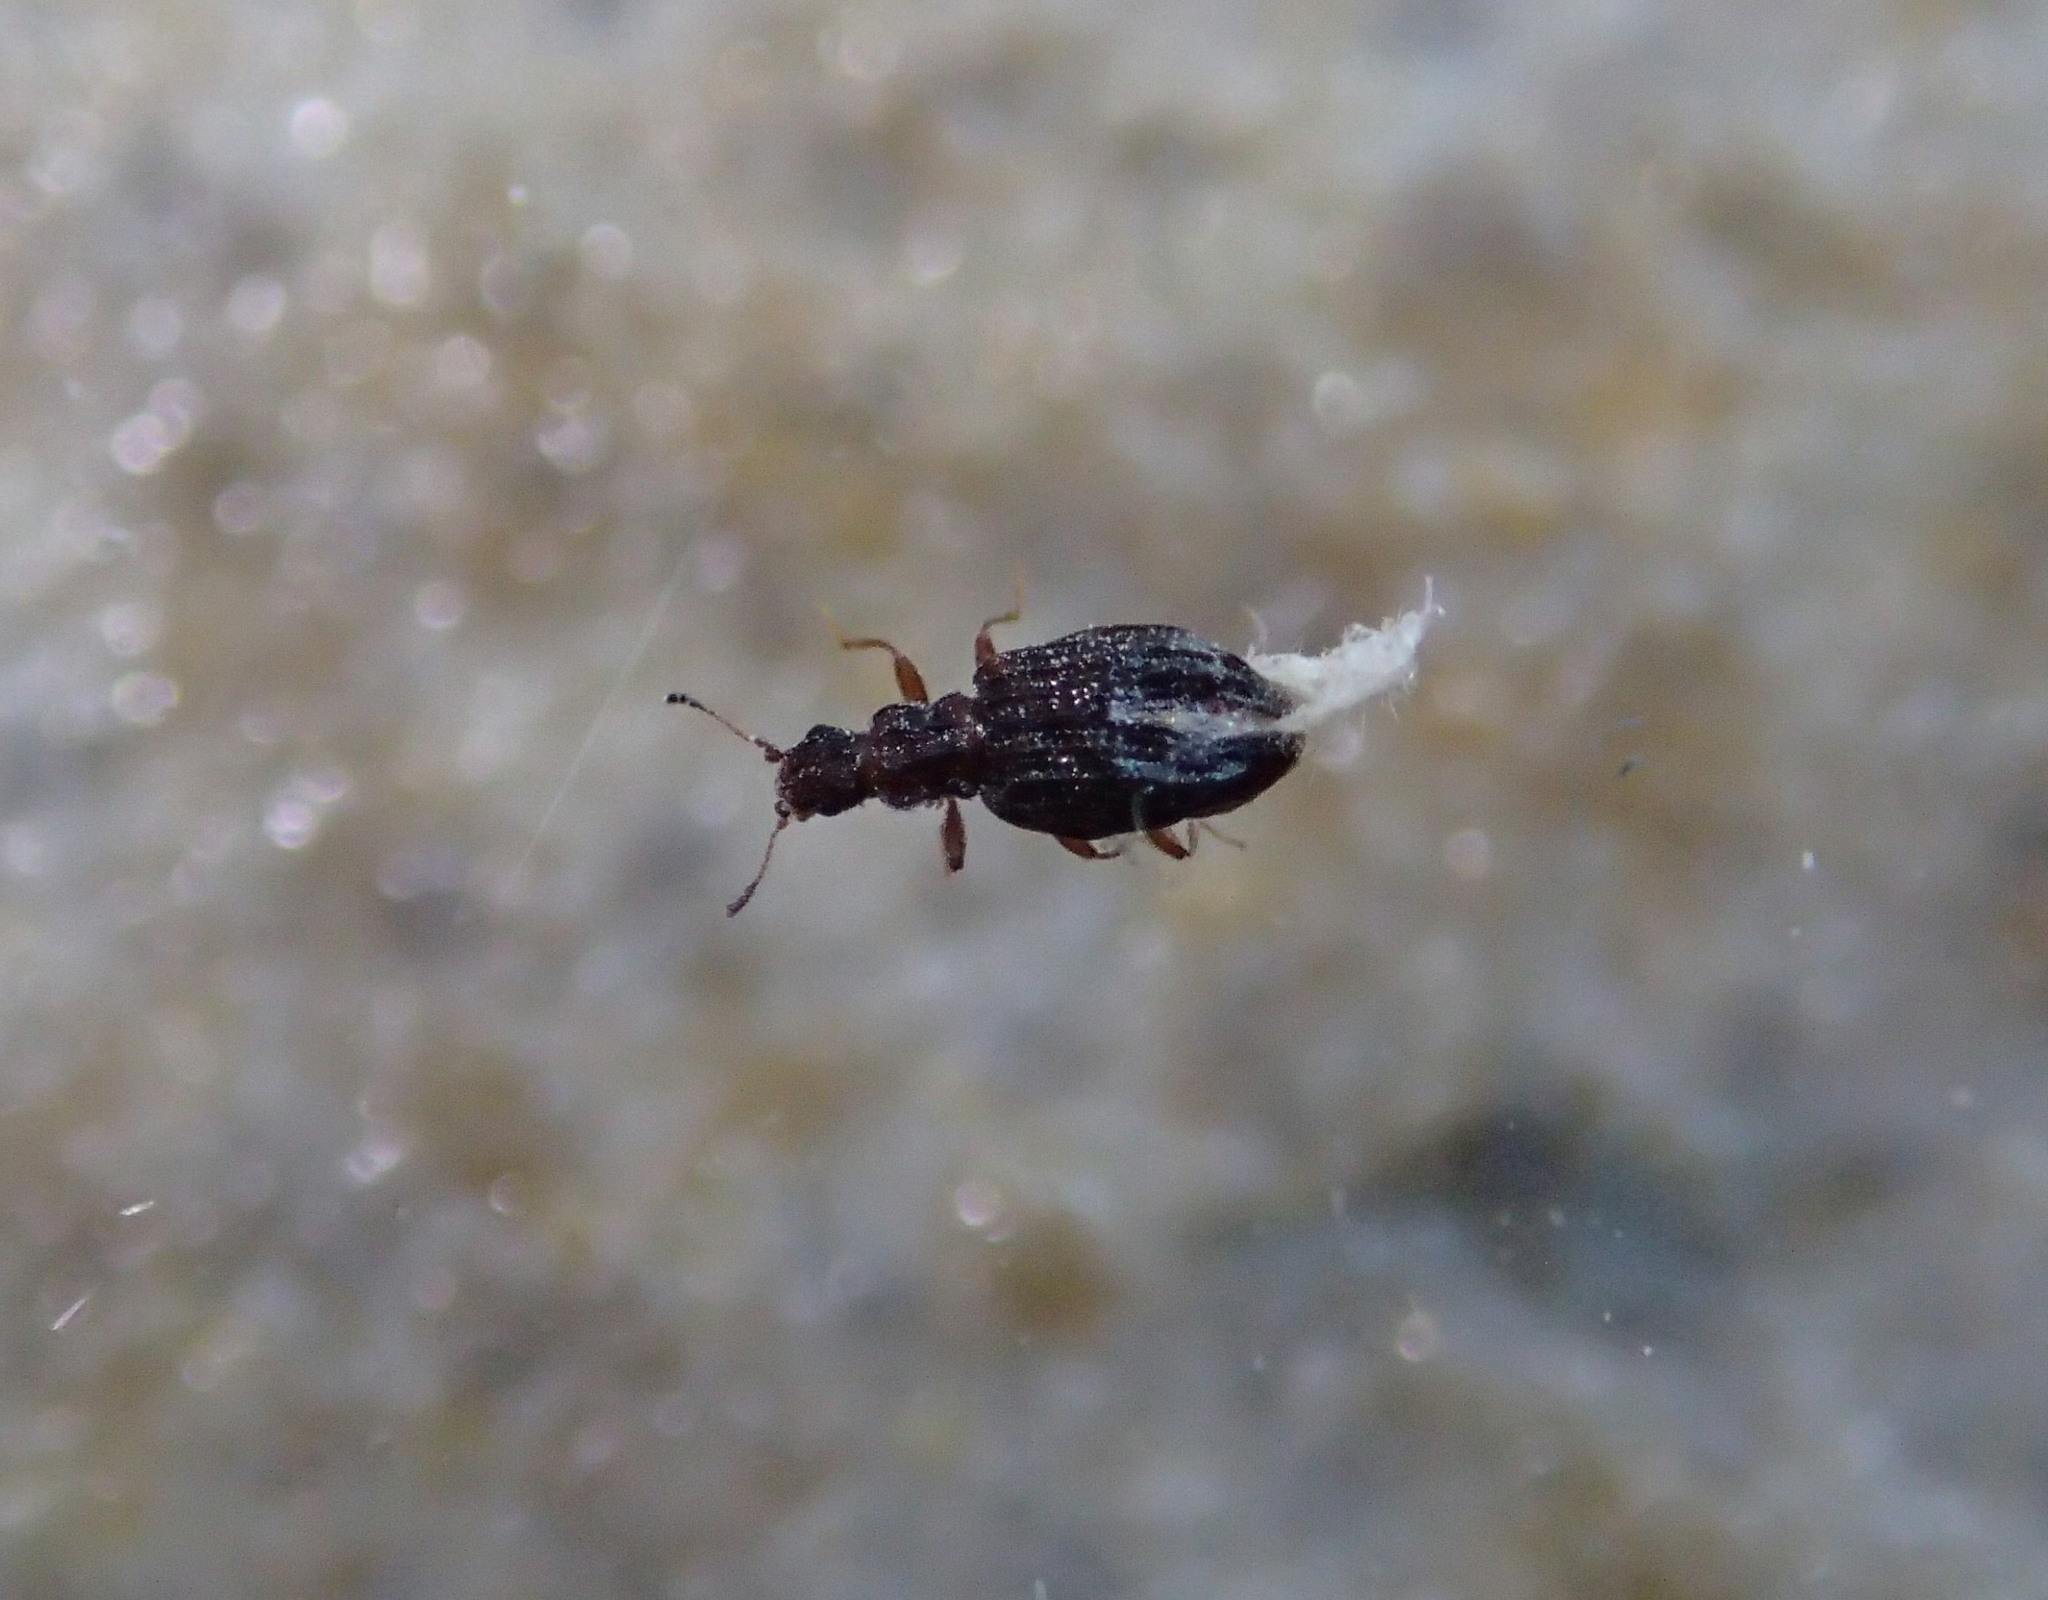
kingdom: Animalia
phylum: Arthropoda
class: Insecta
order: Coleoptera
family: Latridiidae
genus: Cartodere
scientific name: Cartodere nodifer
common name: Humpbacked minute scavenger beetle
